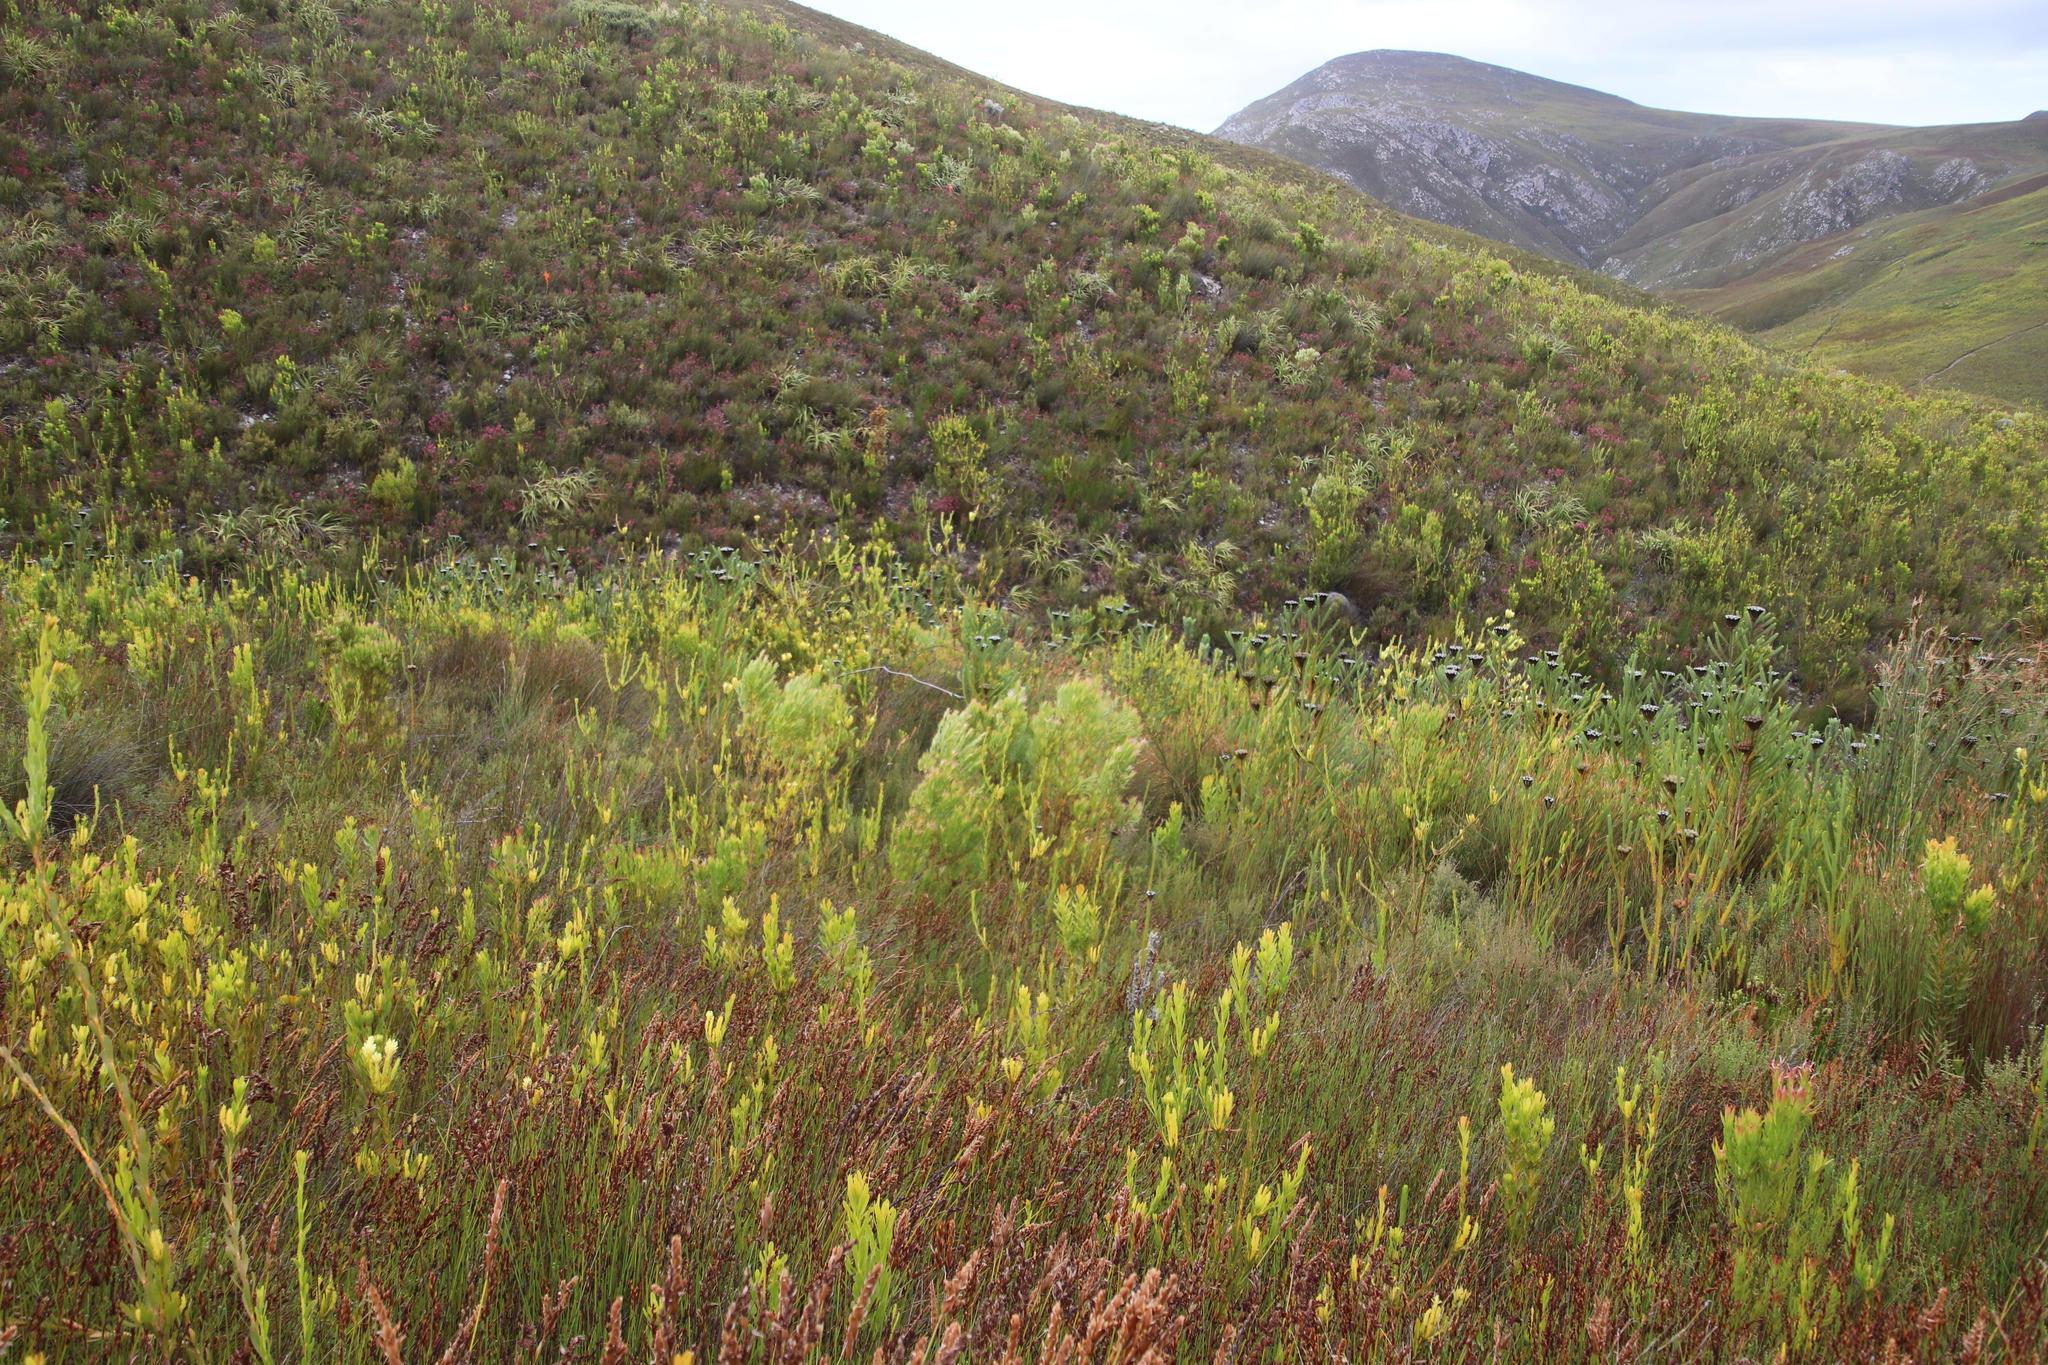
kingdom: Plantae
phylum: Tracheophyta
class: Magnoliopsida
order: Proteales
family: Proteaceae
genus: Leucadendron
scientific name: Leucadendron xanthoconus
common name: Sickle-leaf conebush
